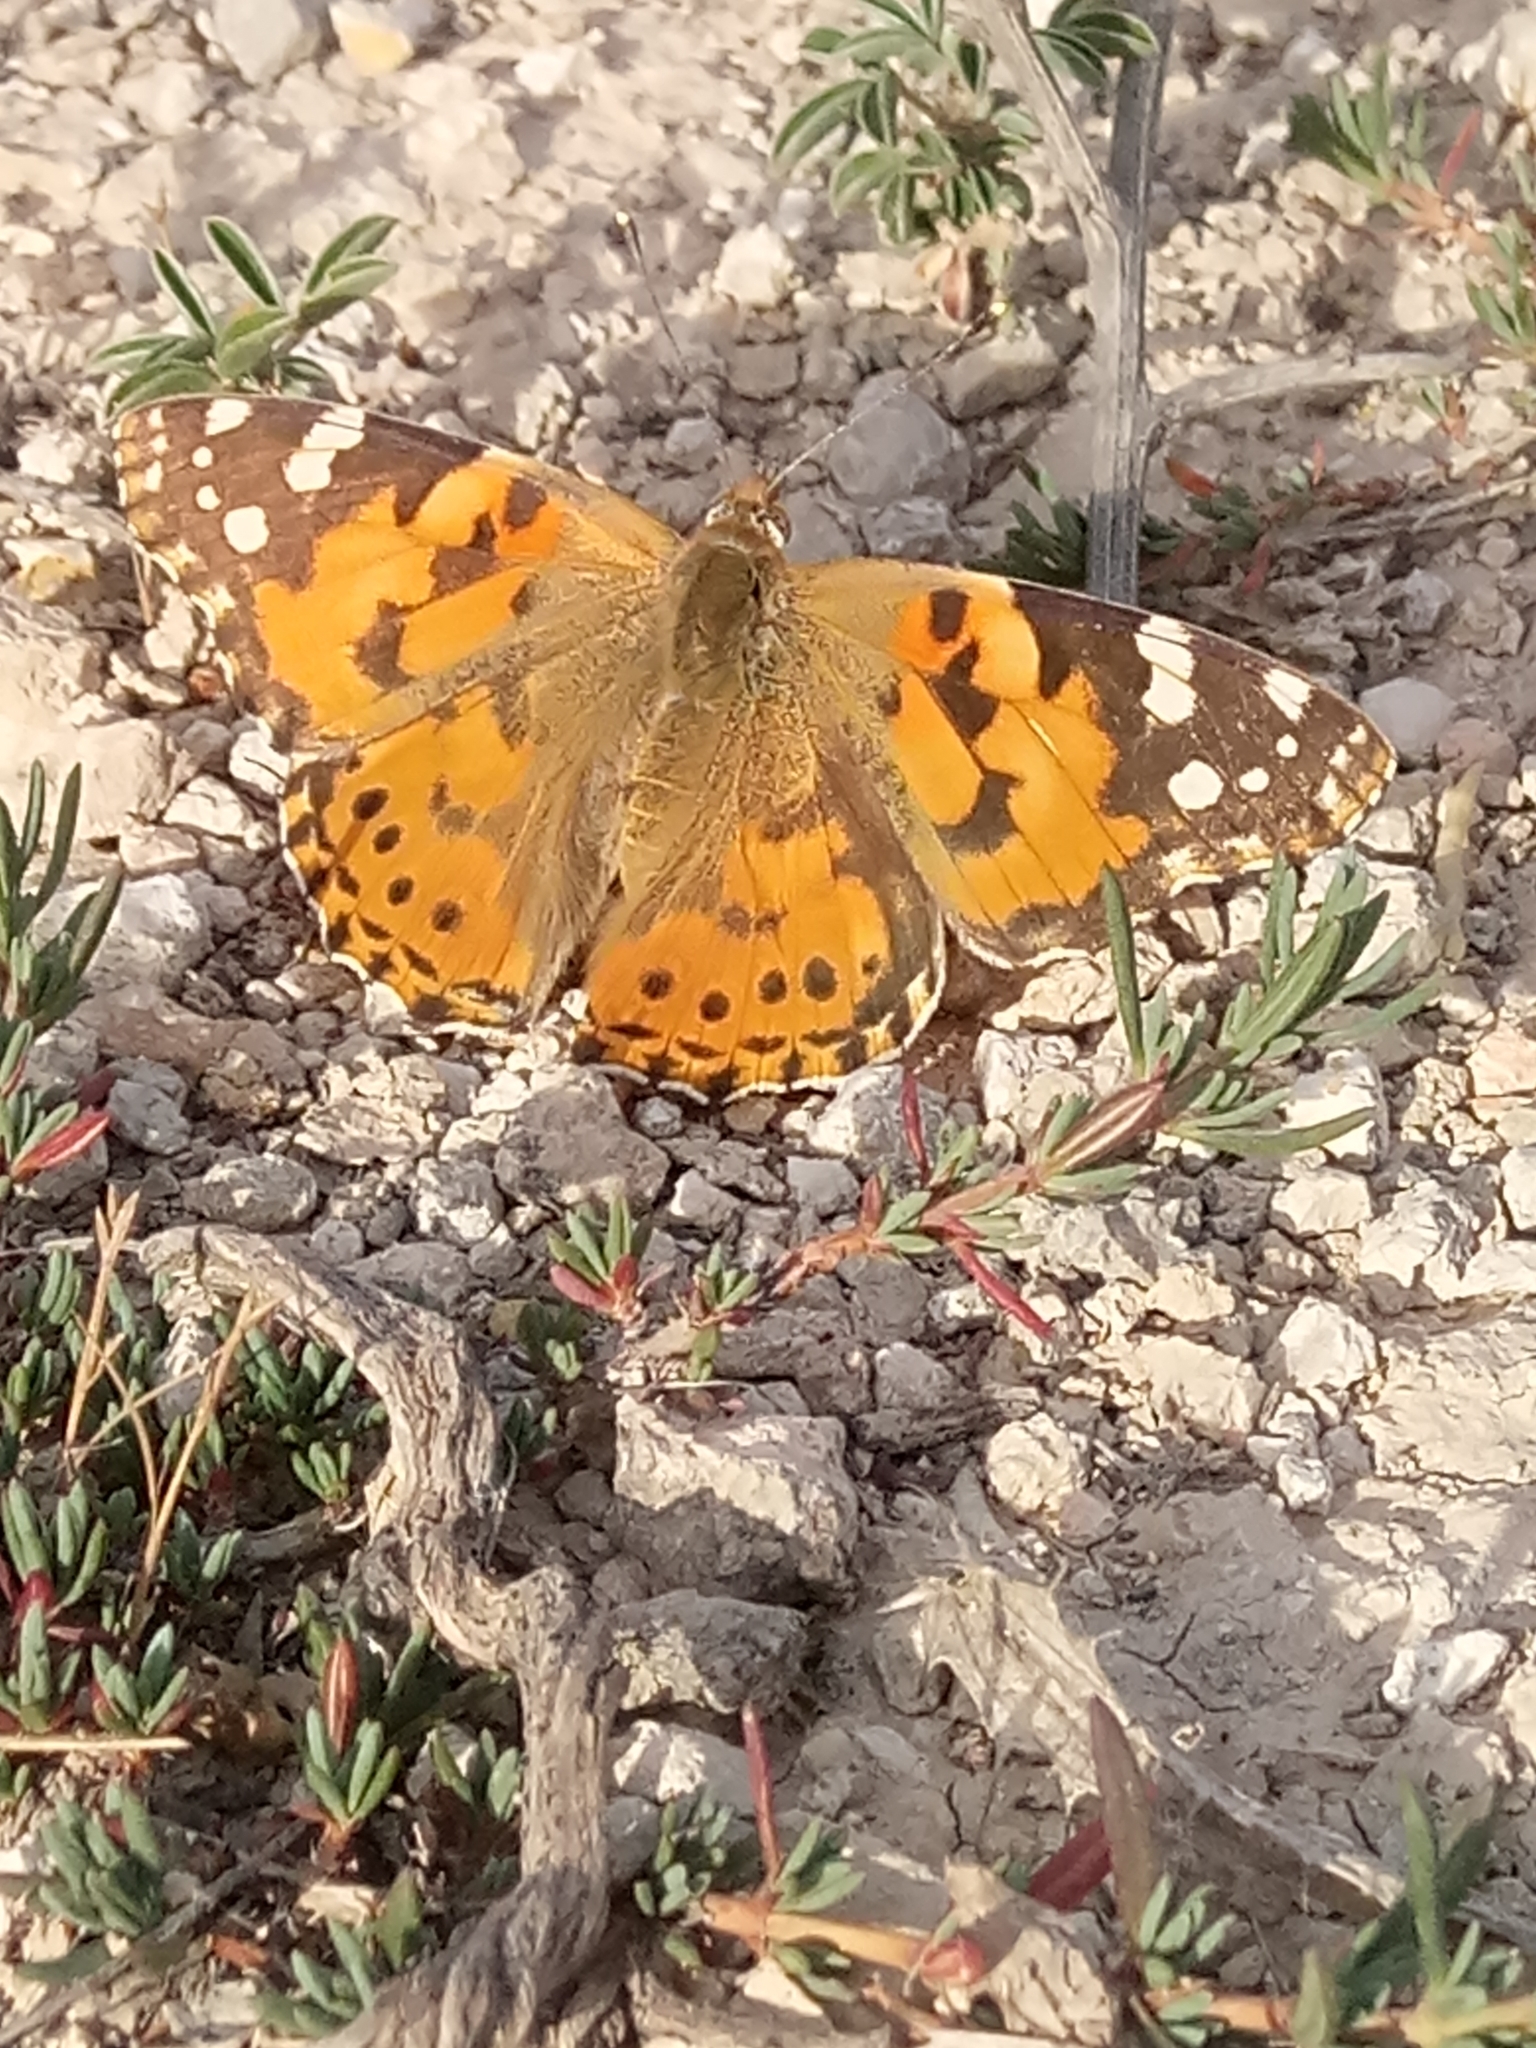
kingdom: Animalia
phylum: Arthropoda
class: Insecta
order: Lepidoptera
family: Nymphalidae
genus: Vanessa
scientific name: Vanessa cardui
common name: Painted lady
